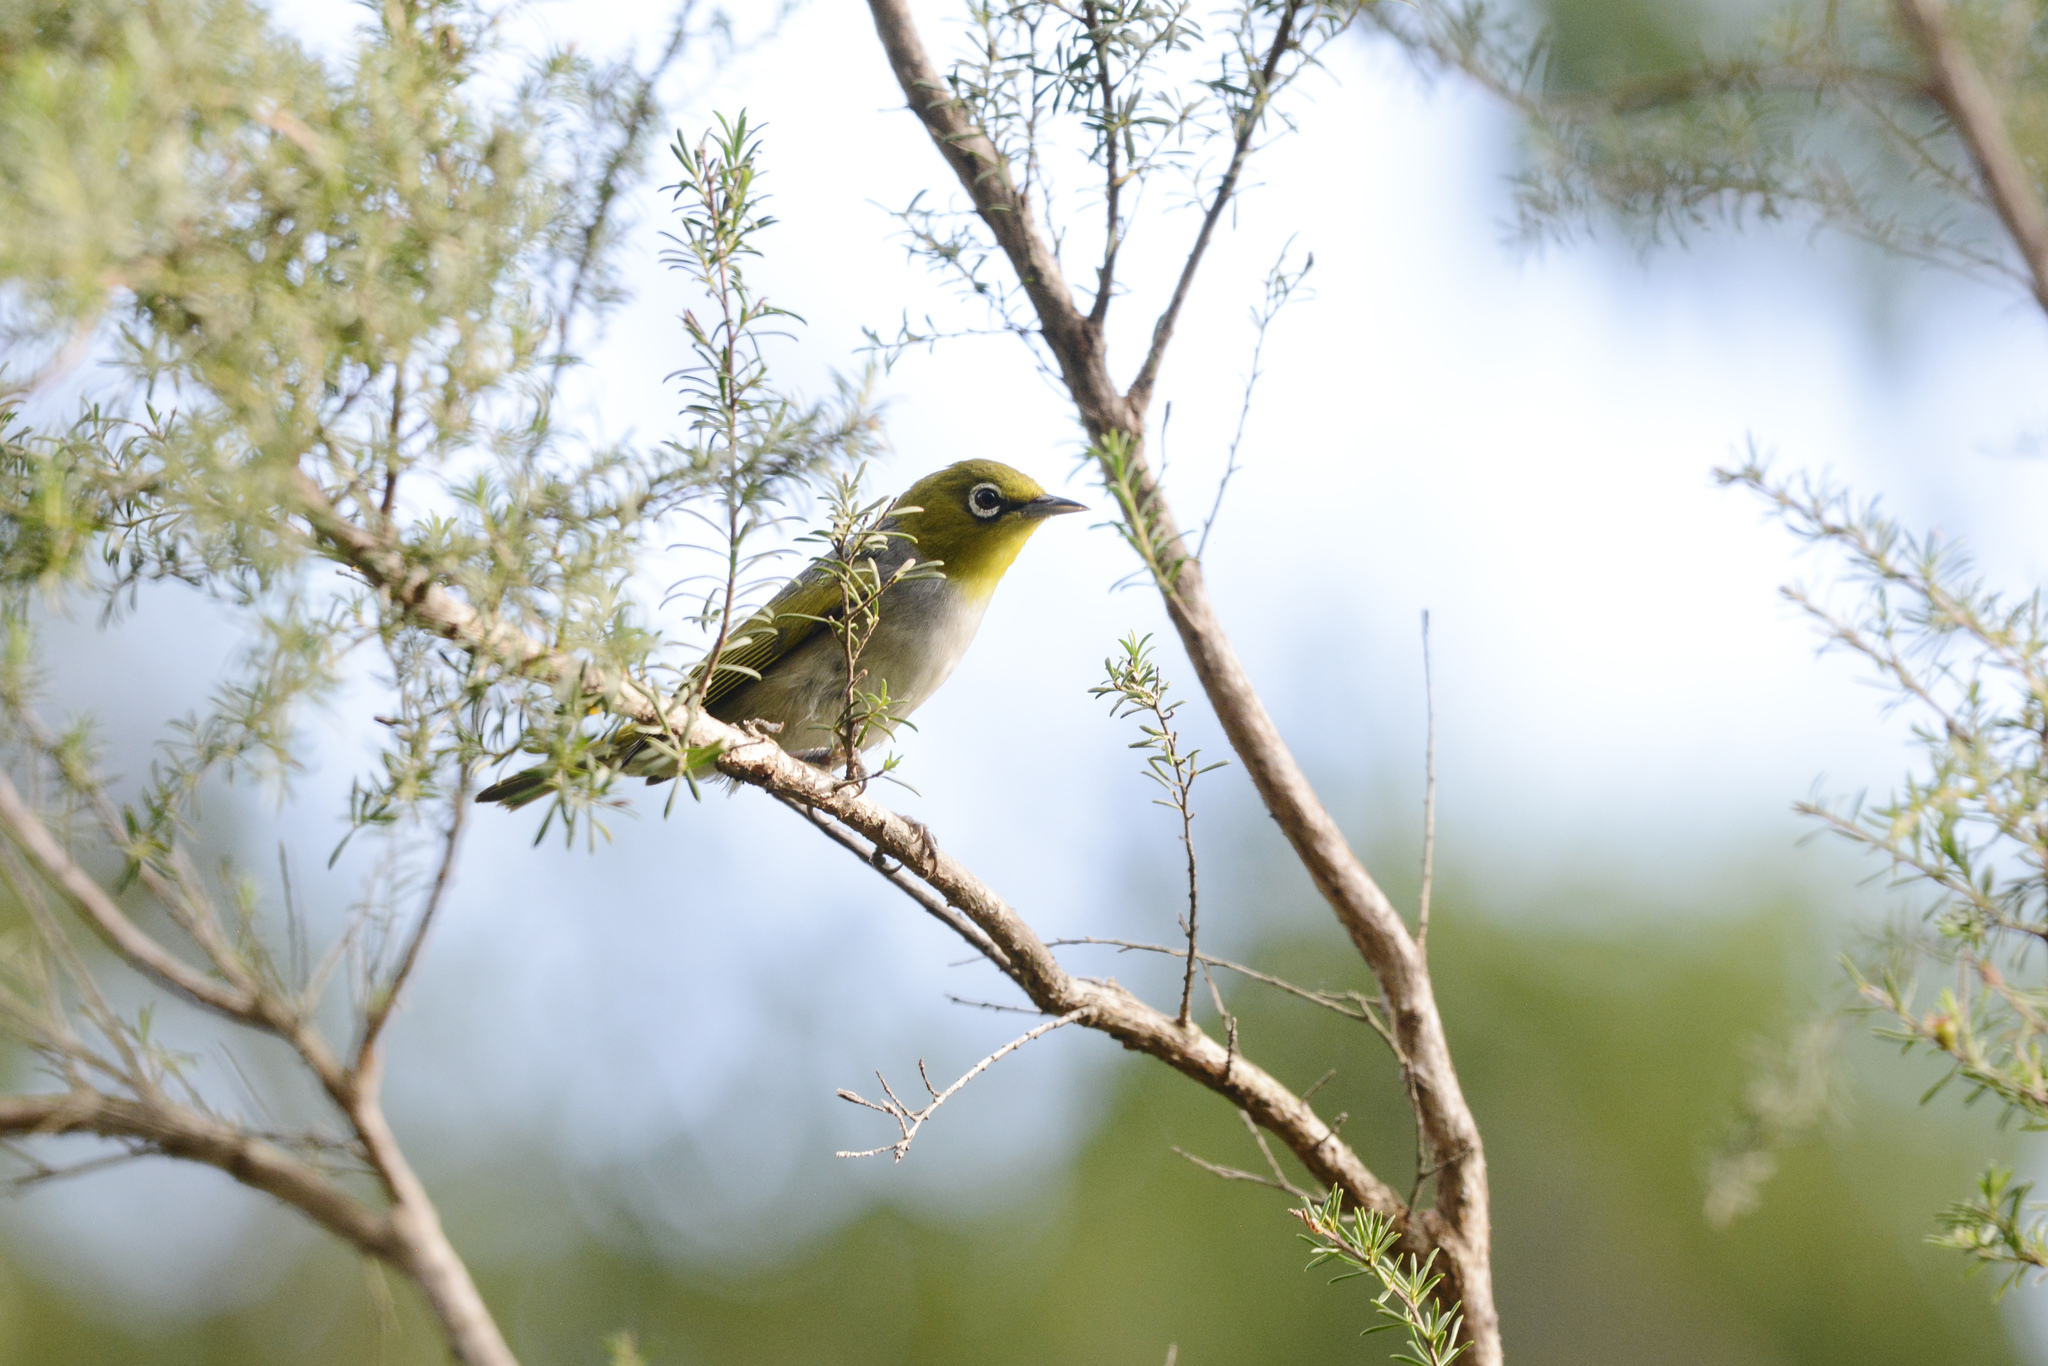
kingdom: Animalia
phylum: Chordata
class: Aves
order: Passeriformes
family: Zosteropidae
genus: Zosterops
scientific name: Zosterops lateralis
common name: Silvereye
